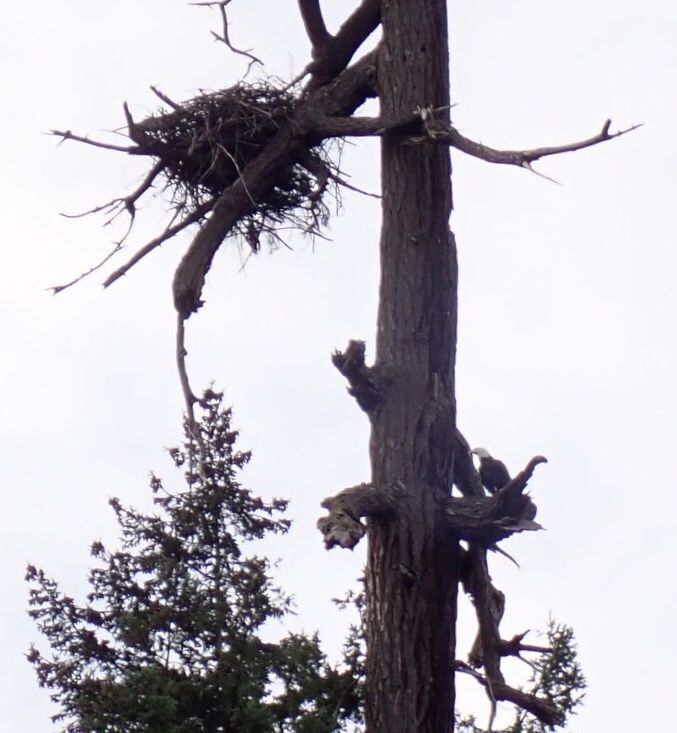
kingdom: Animalia
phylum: Chordata
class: Aves
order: Accipitriformes
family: Accipitridae
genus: Haliaeetus
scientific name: Haliaeetus leucocephalus
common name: Bald eagle
